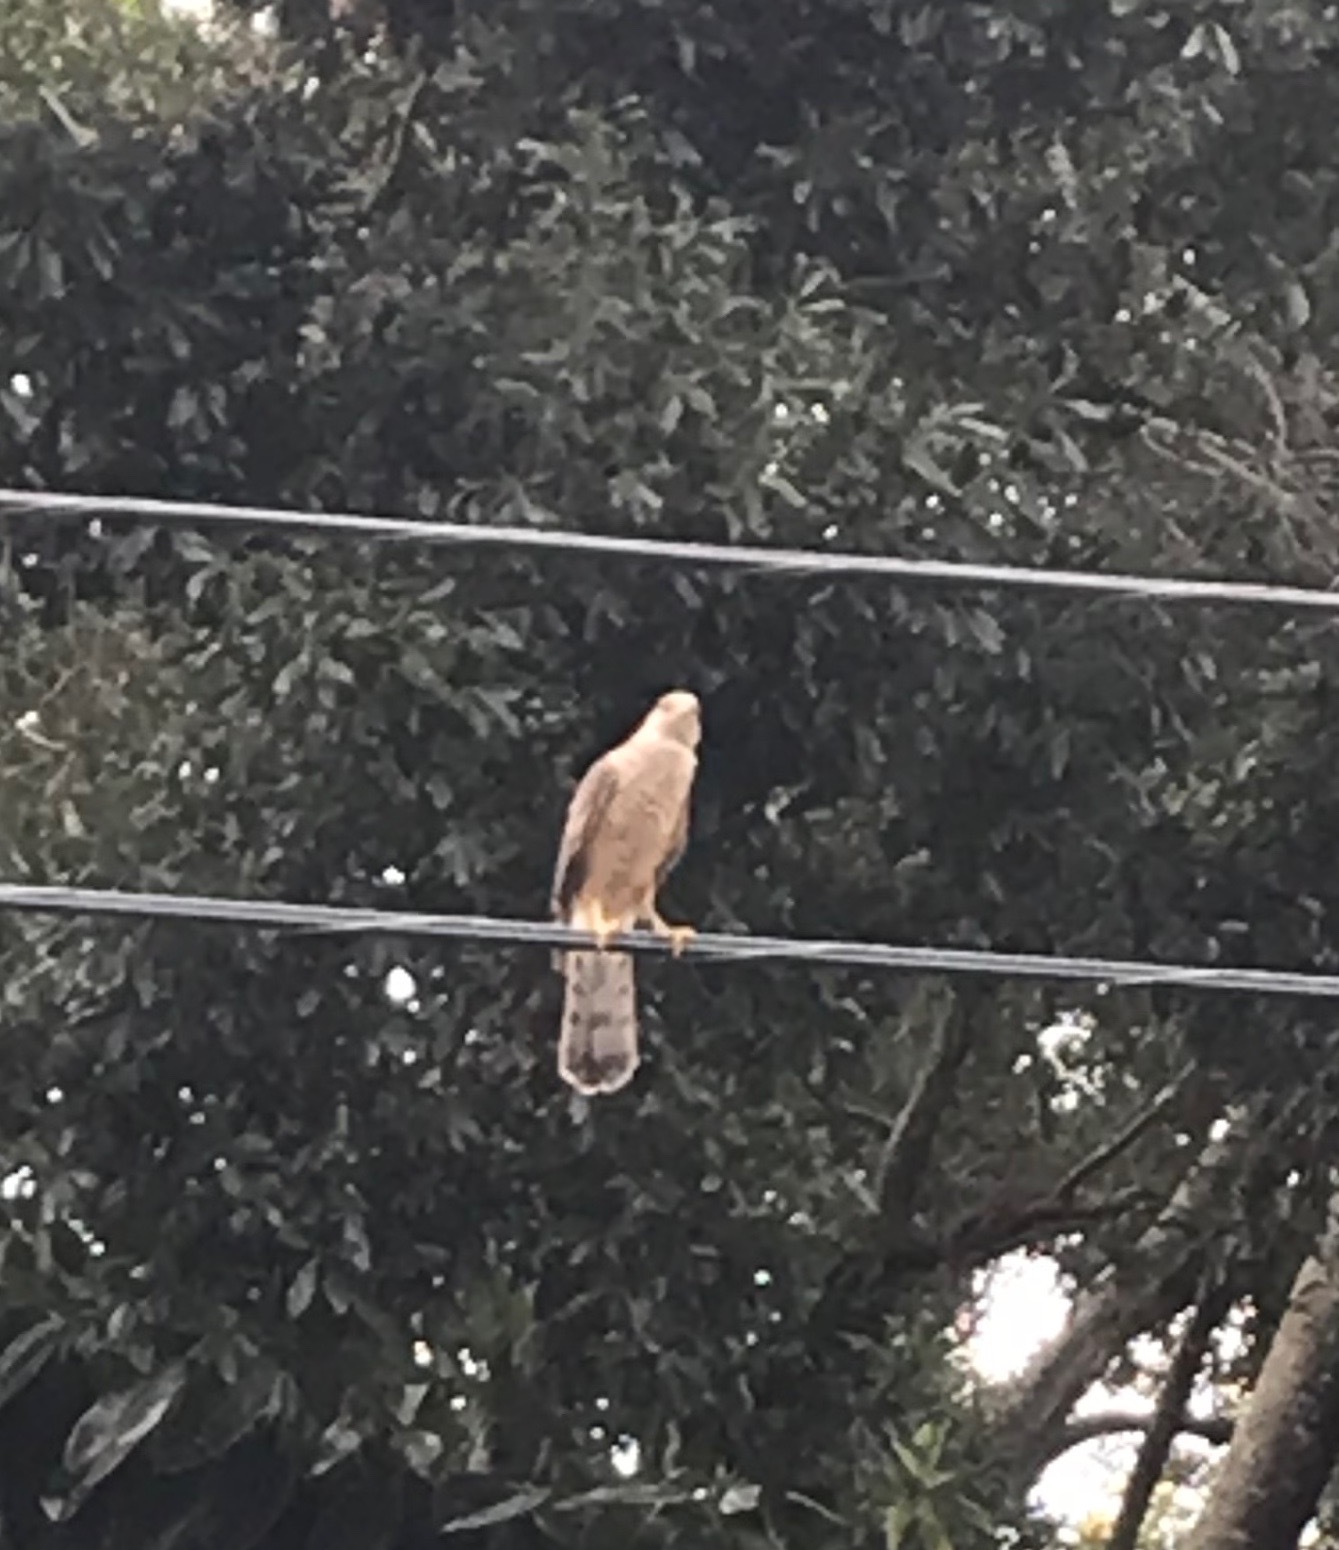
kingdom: Animalia
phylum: Chordata
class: Aves
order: Accipitriformes
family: Accipitridae
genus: Accipiter
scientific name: Accipiter cooperii
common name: Cooper's hawk
